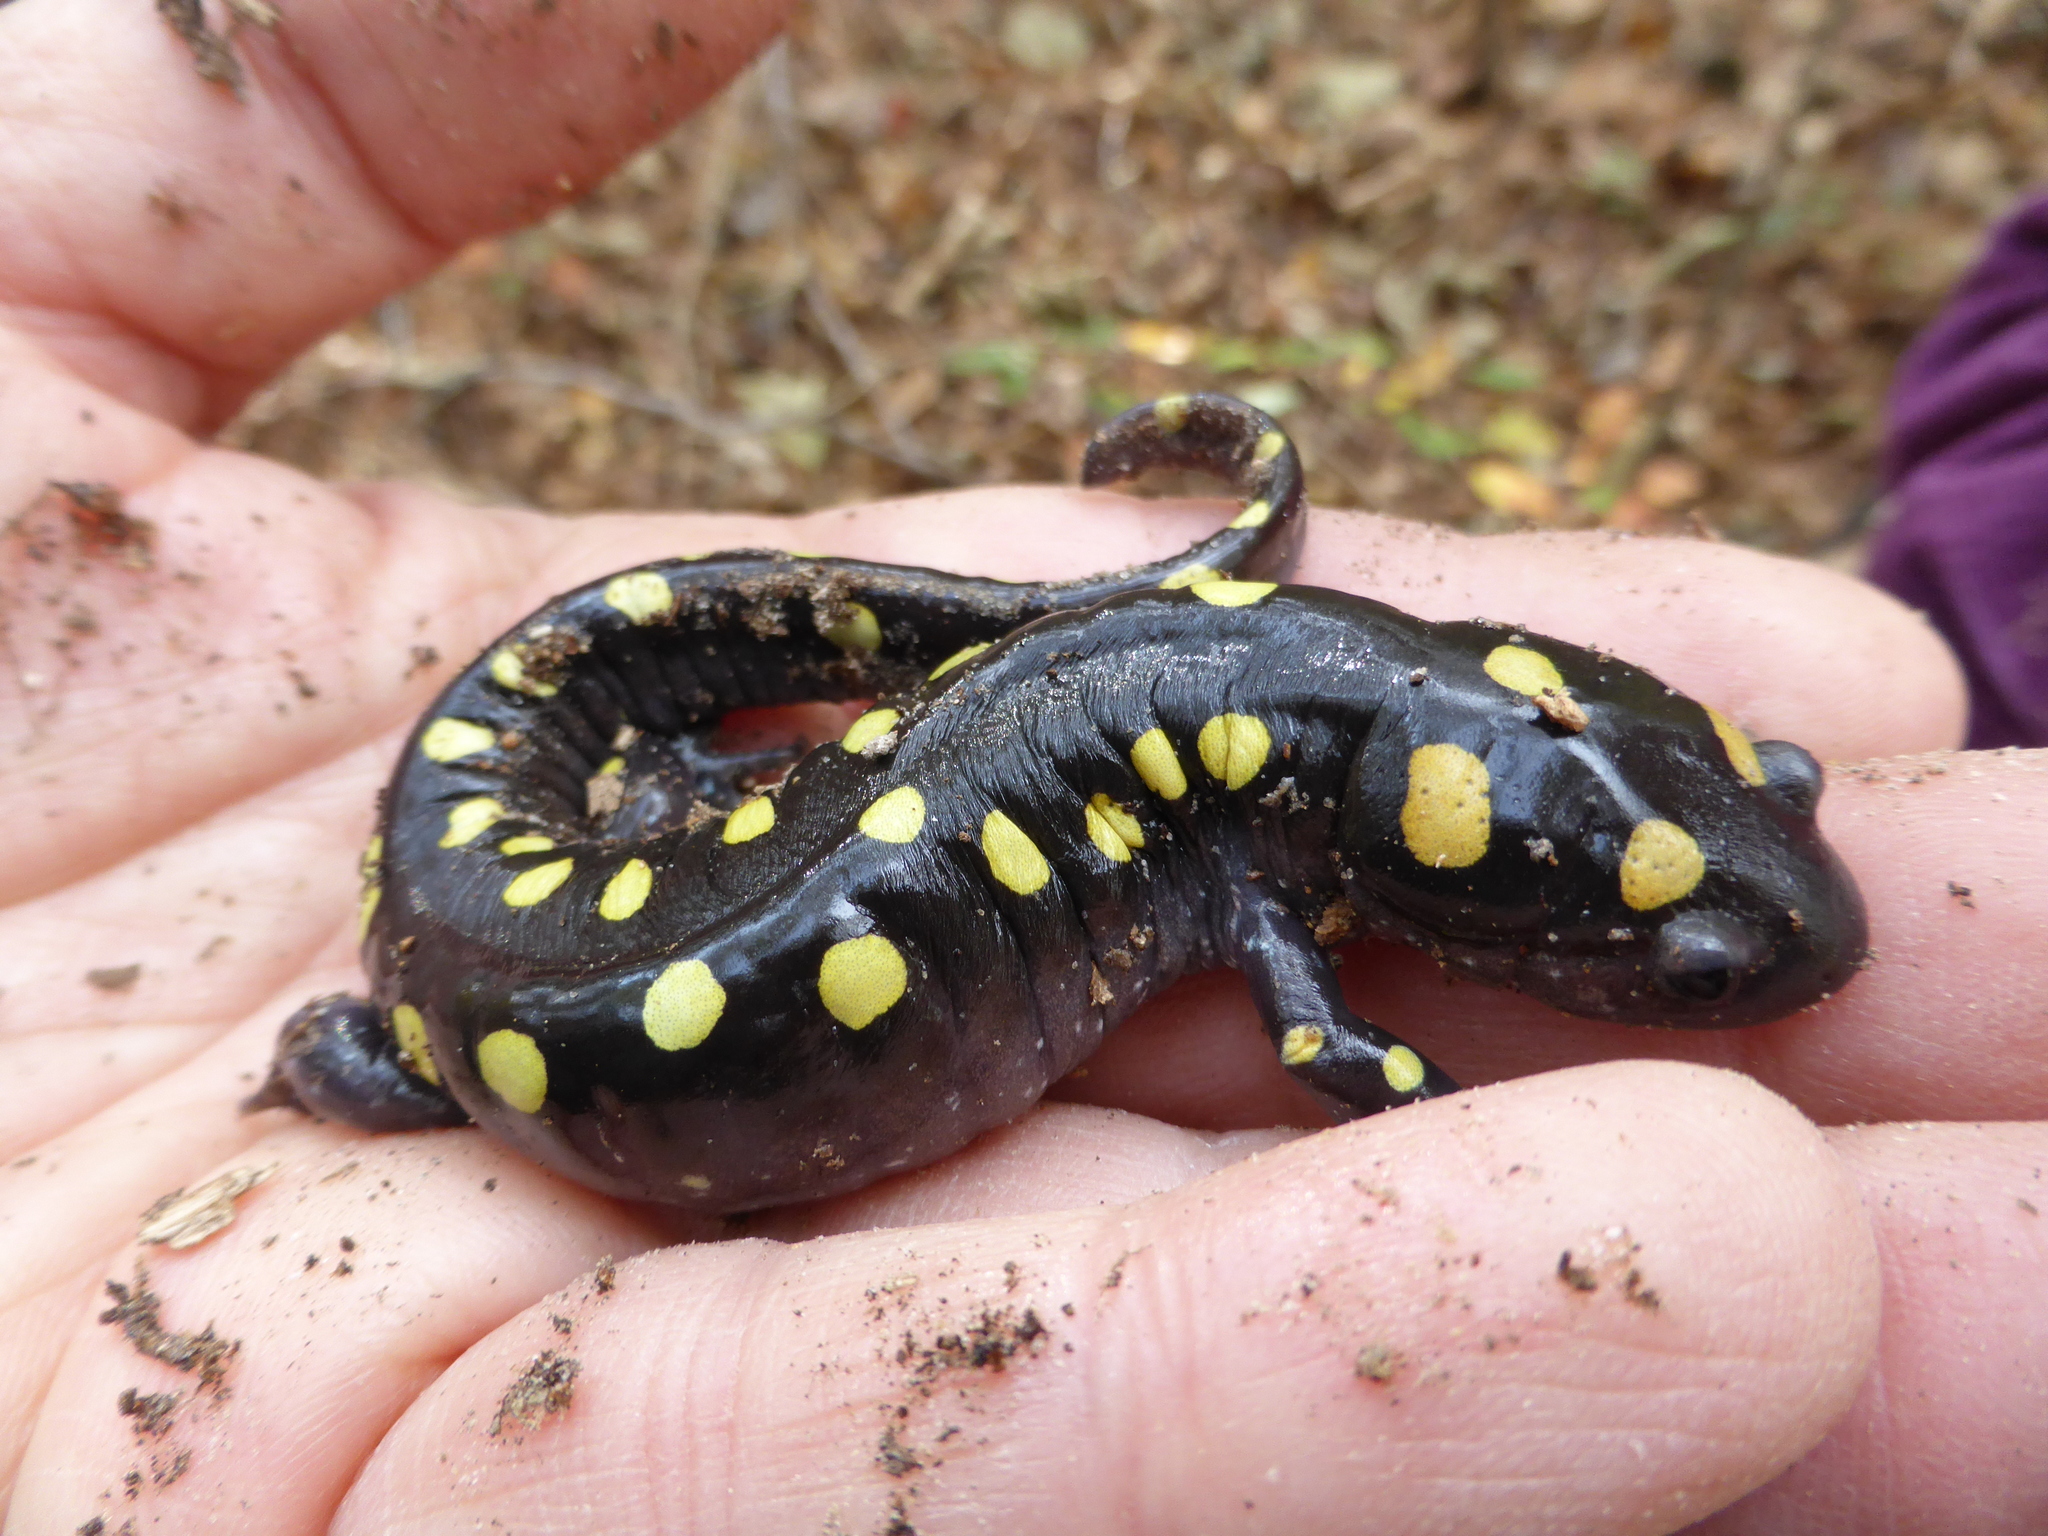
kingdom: Animalia
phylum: Chordata
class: Amphibia
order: Caudata
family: Ambystomatidae
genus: Ambystoma
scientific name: Ambystoma maculatum
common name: Spotted salamander
